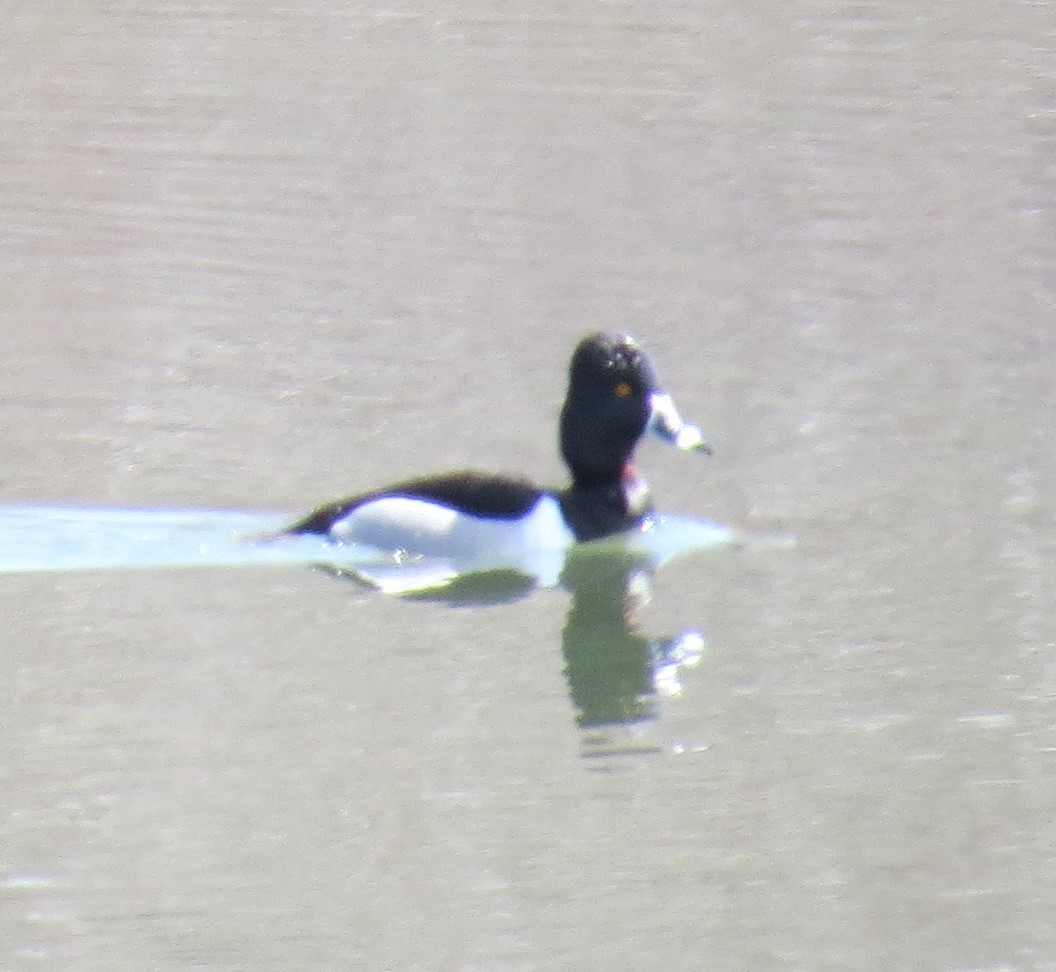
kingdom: Animalia
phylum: Chordata
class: Aves
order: Anseriformes
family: Anatidae
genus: Aythya
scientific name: Aythya collaris
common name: Ring-necked duck
